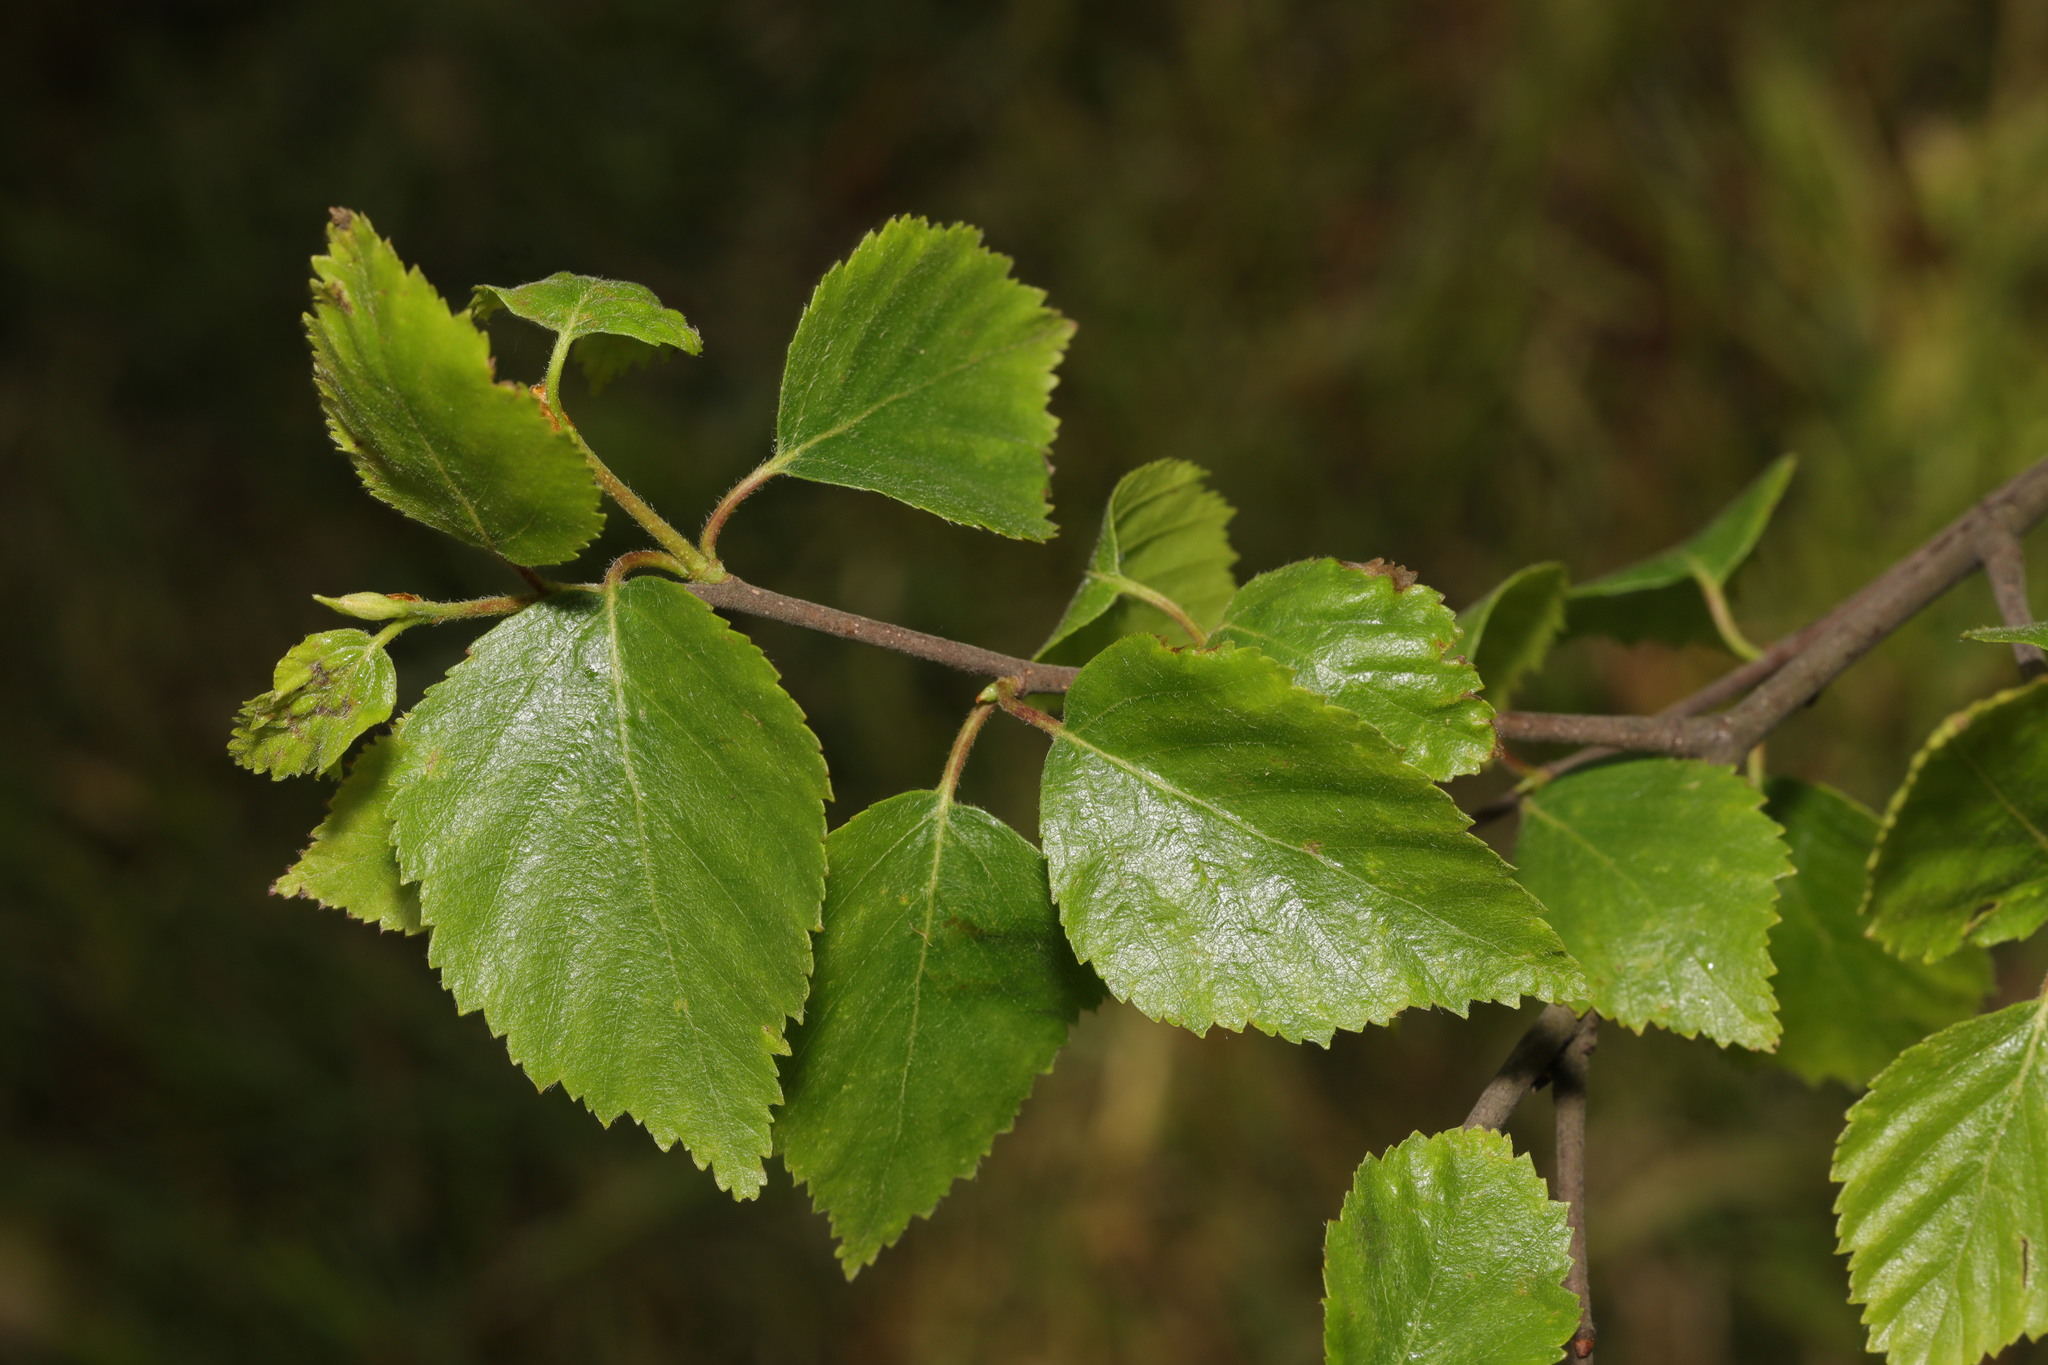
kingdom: Plantae
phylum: Tracheophyta
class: Magnoliopsida
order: Fagales
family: Betulaceae
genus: Betula
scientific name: Betula pubescens
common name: Downy birch
